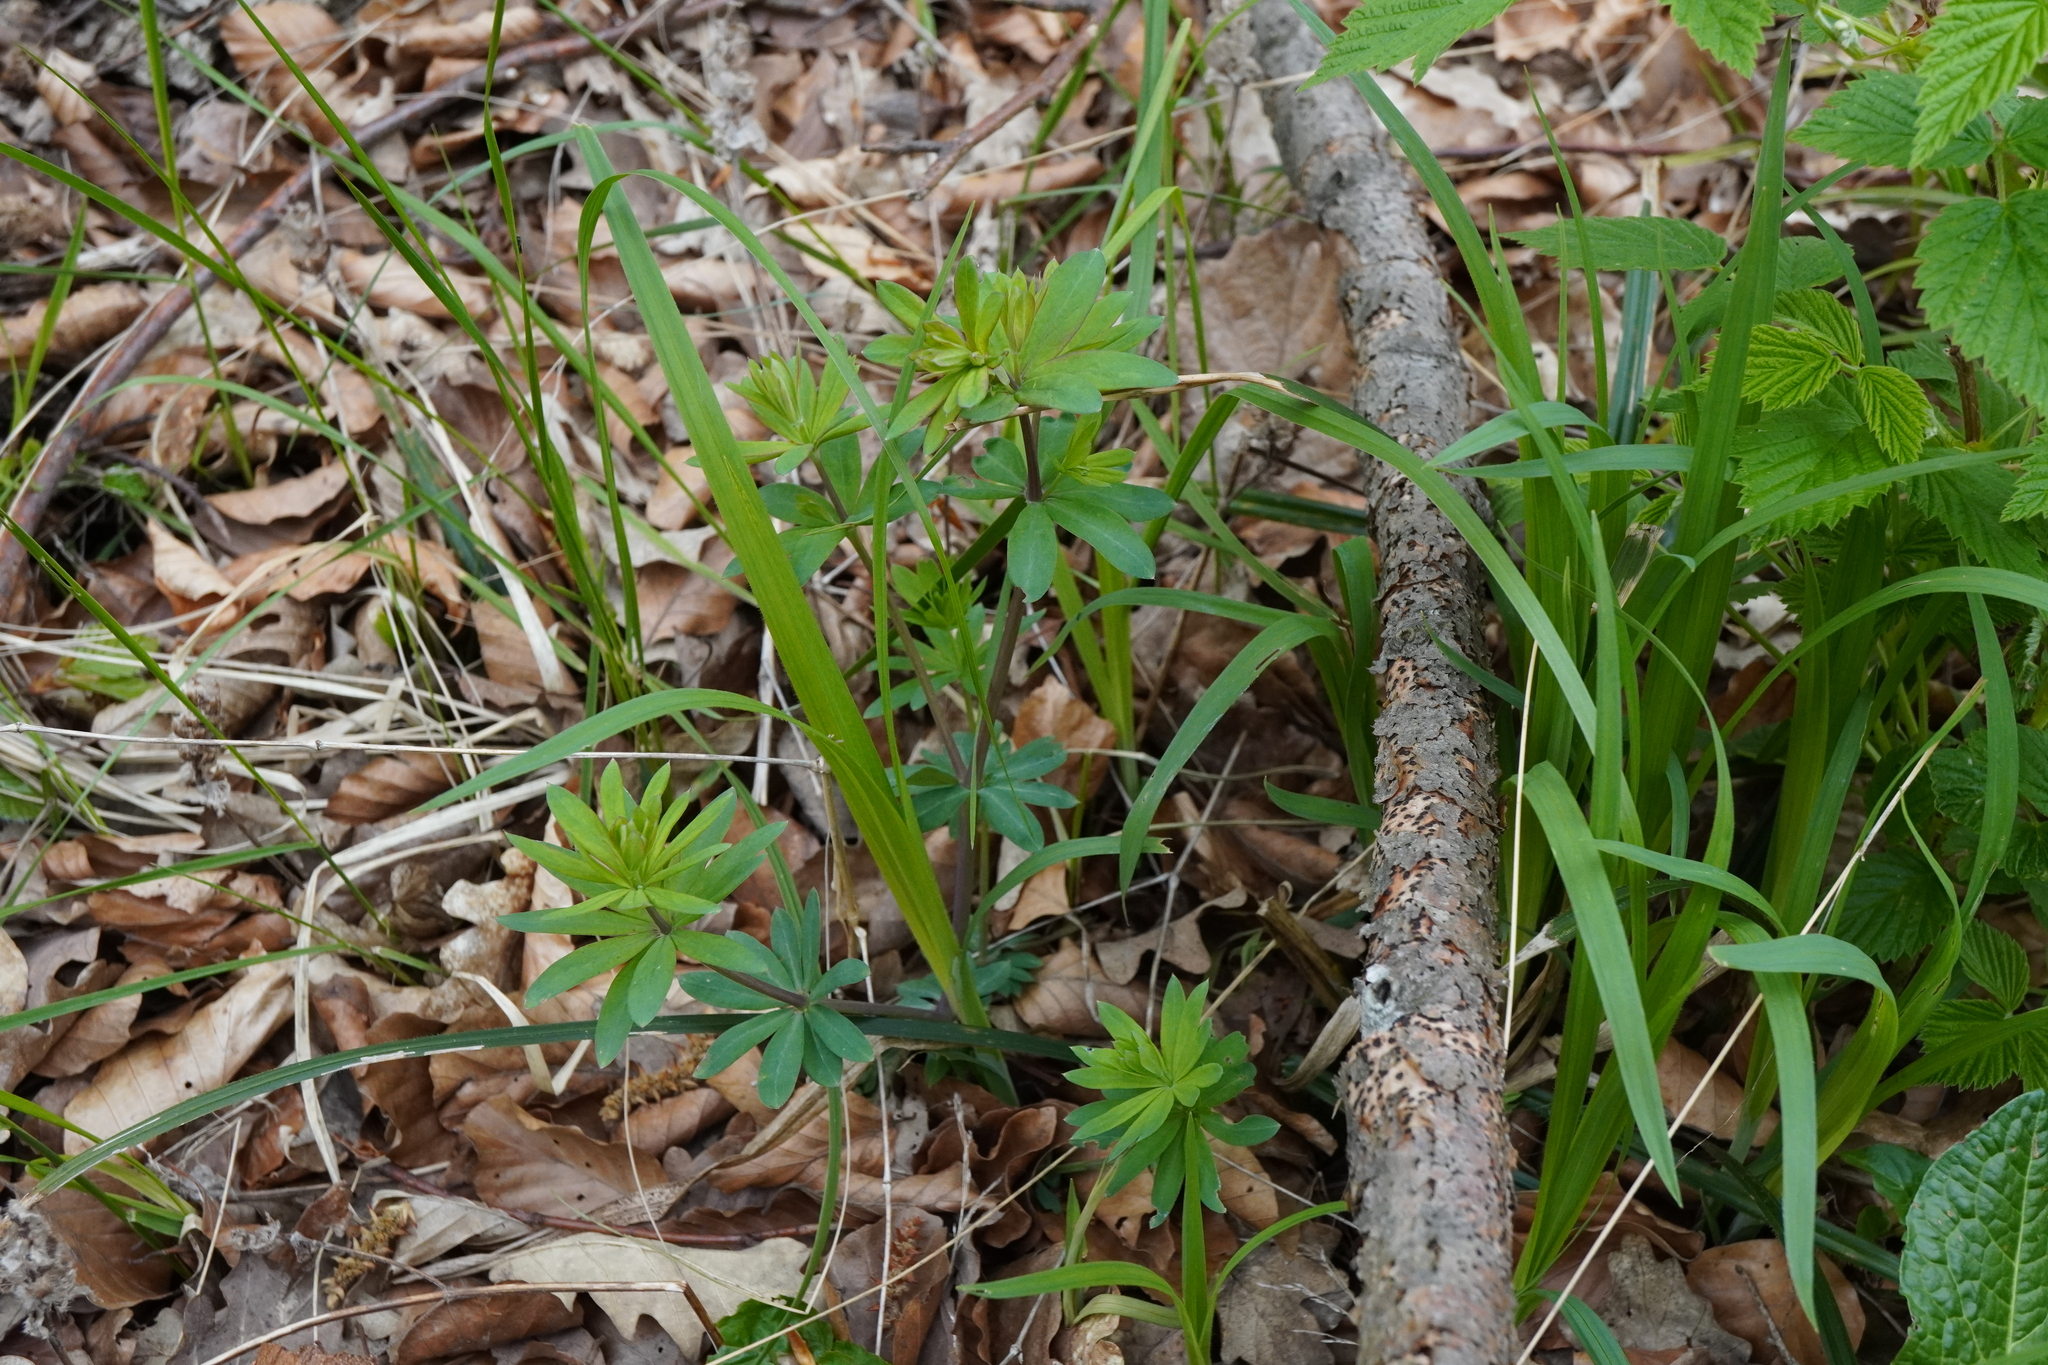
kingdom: Plantae
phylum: Tracheophyta
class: Magnoliopsida
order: Gentianales
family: Rubiaceae
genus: Galium
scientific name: Galium sylvaticum
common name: Wood bedstraw
